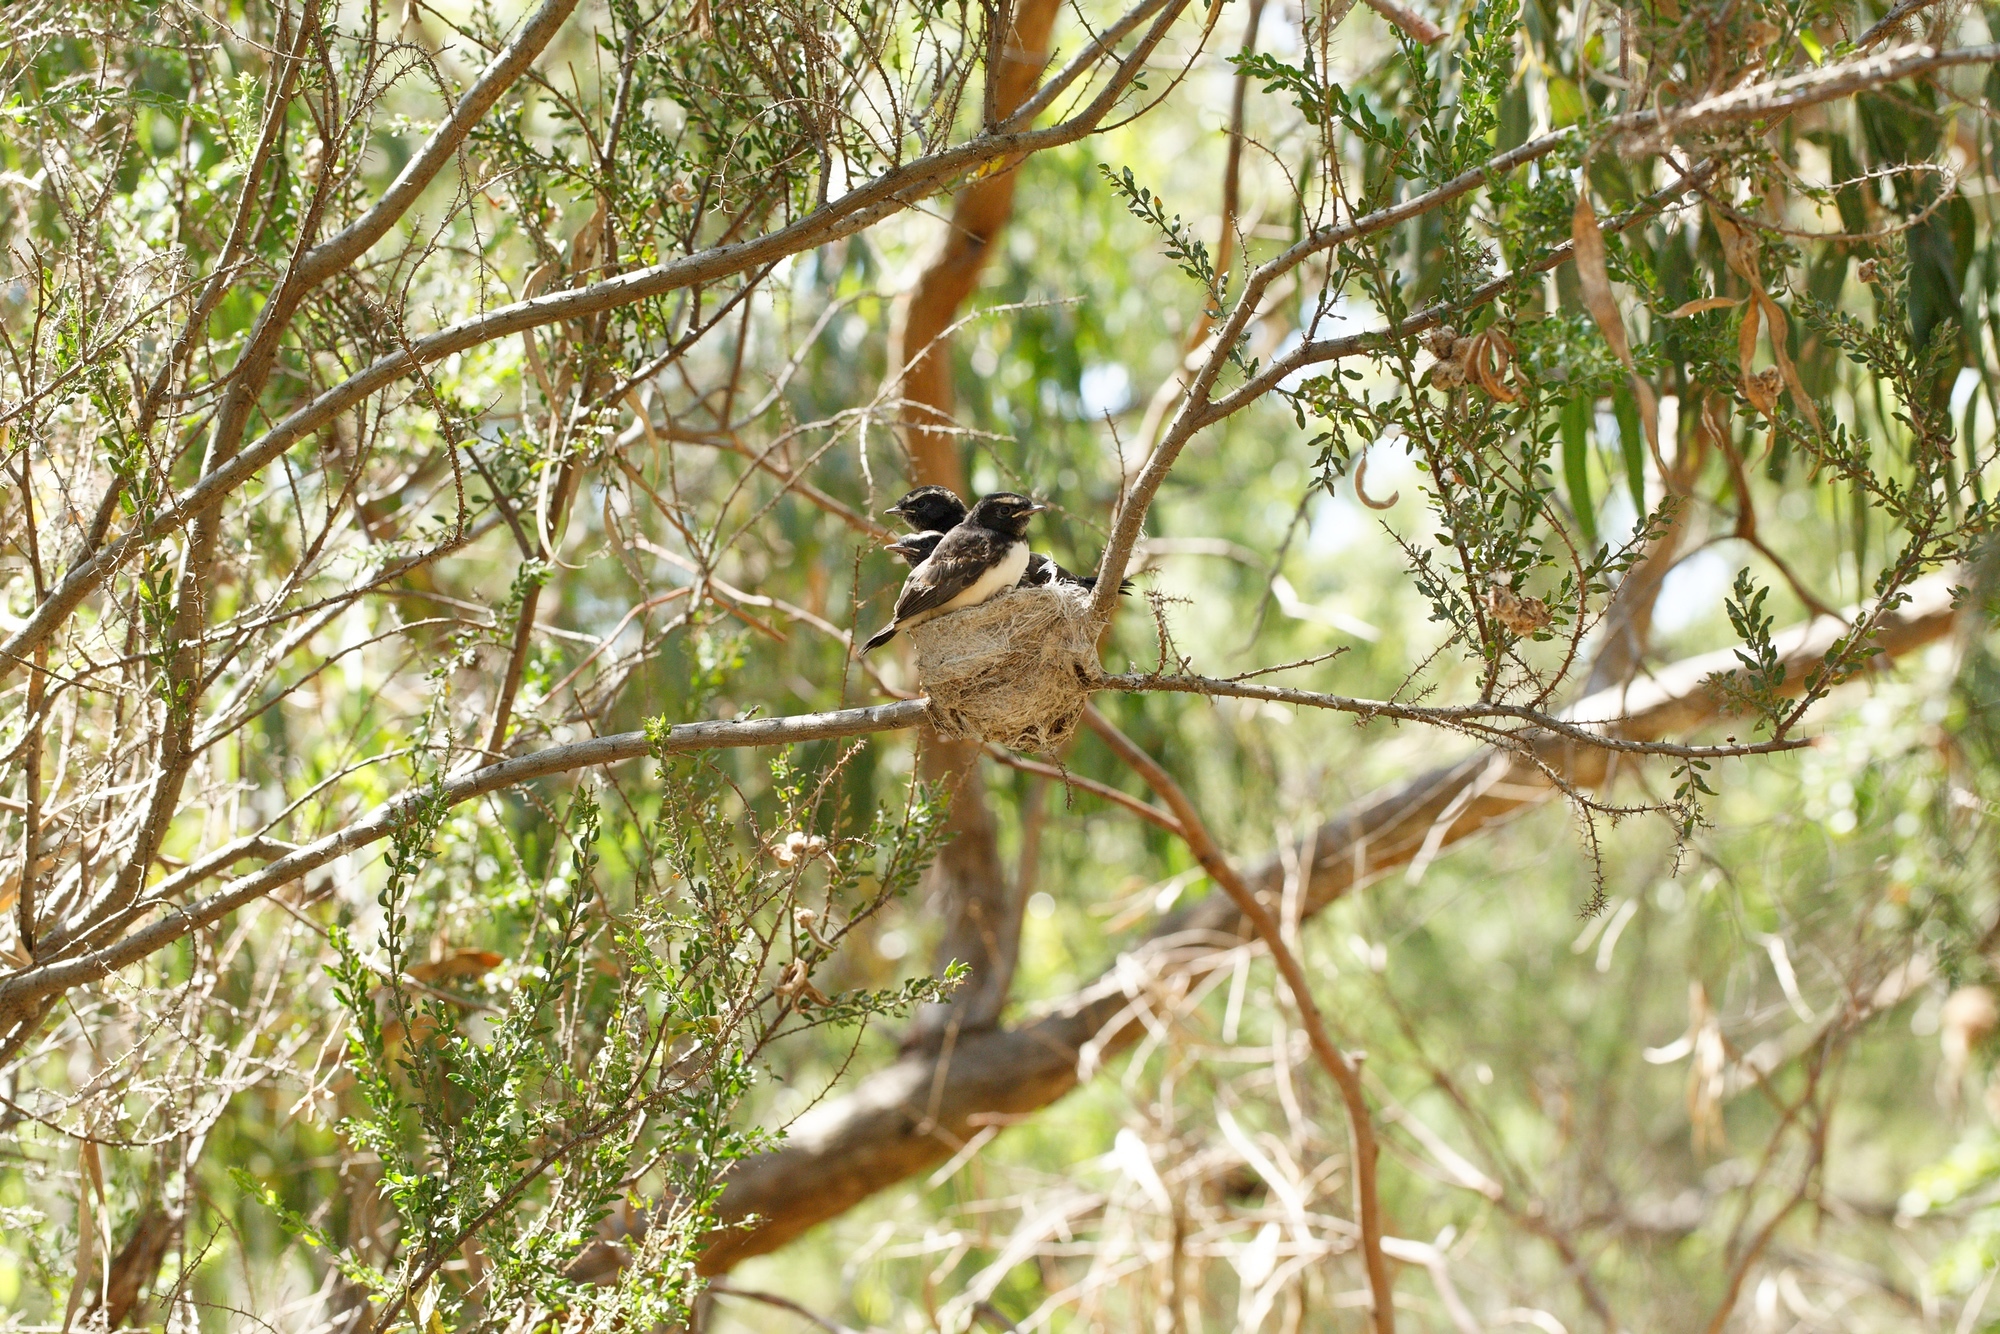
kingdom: Animalia
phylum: Chordata
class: Aves
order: Passeriformes
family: Rhipiduridae
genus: Rhipidura
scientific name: Rhipidura leucophrys
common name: Willie wagtail
